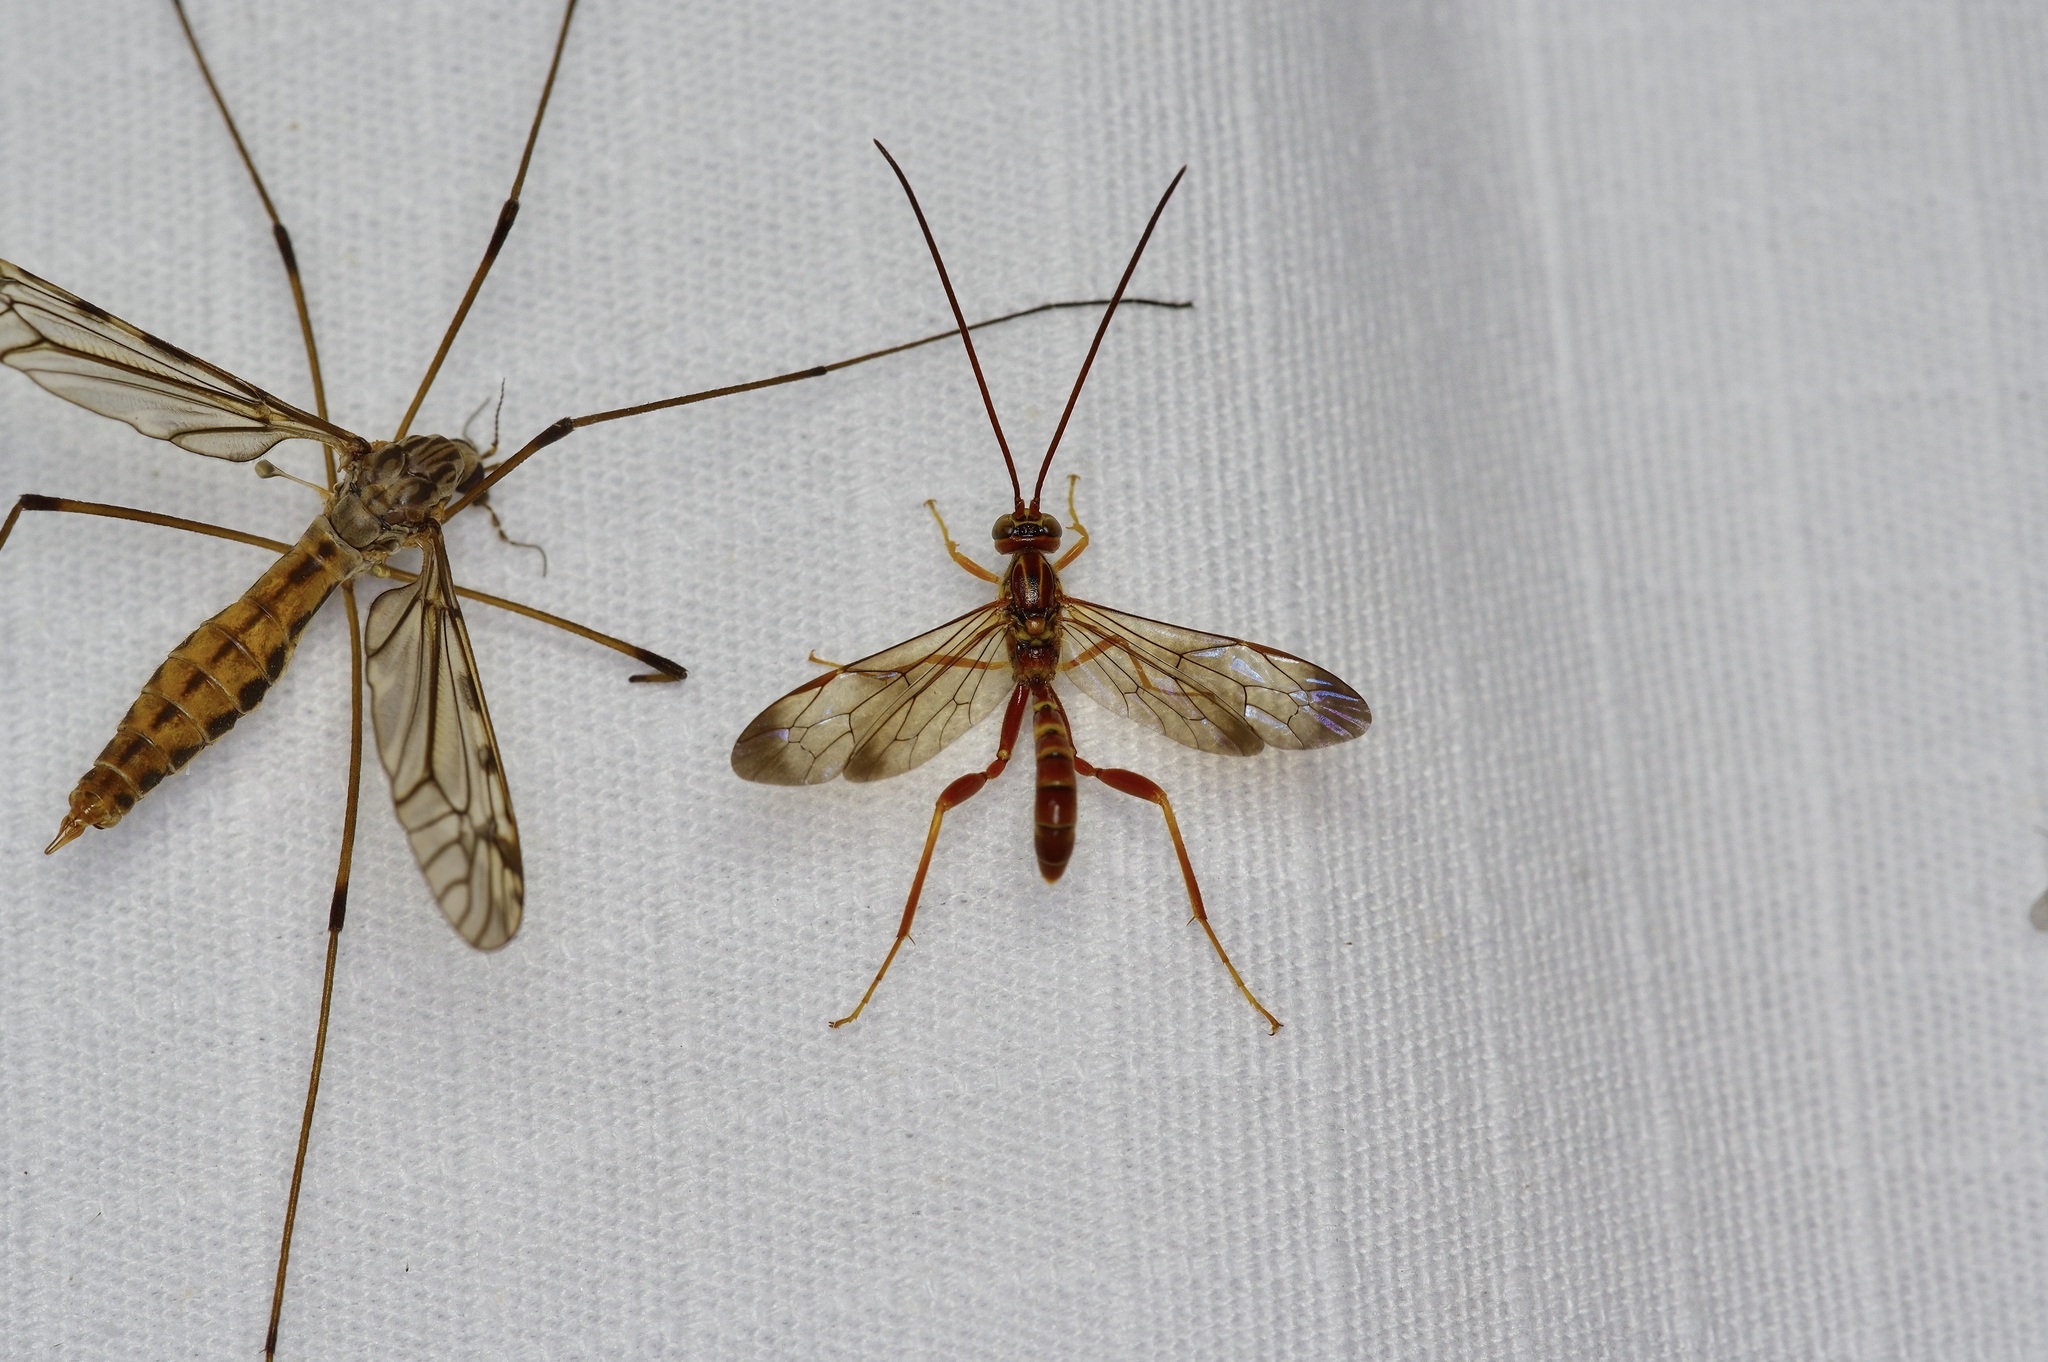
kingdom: Animalia
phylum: Arthropoda
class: Insecta
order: Hymenoptera
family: Ichneumonidae
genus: Labena
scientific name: Labena grallator
